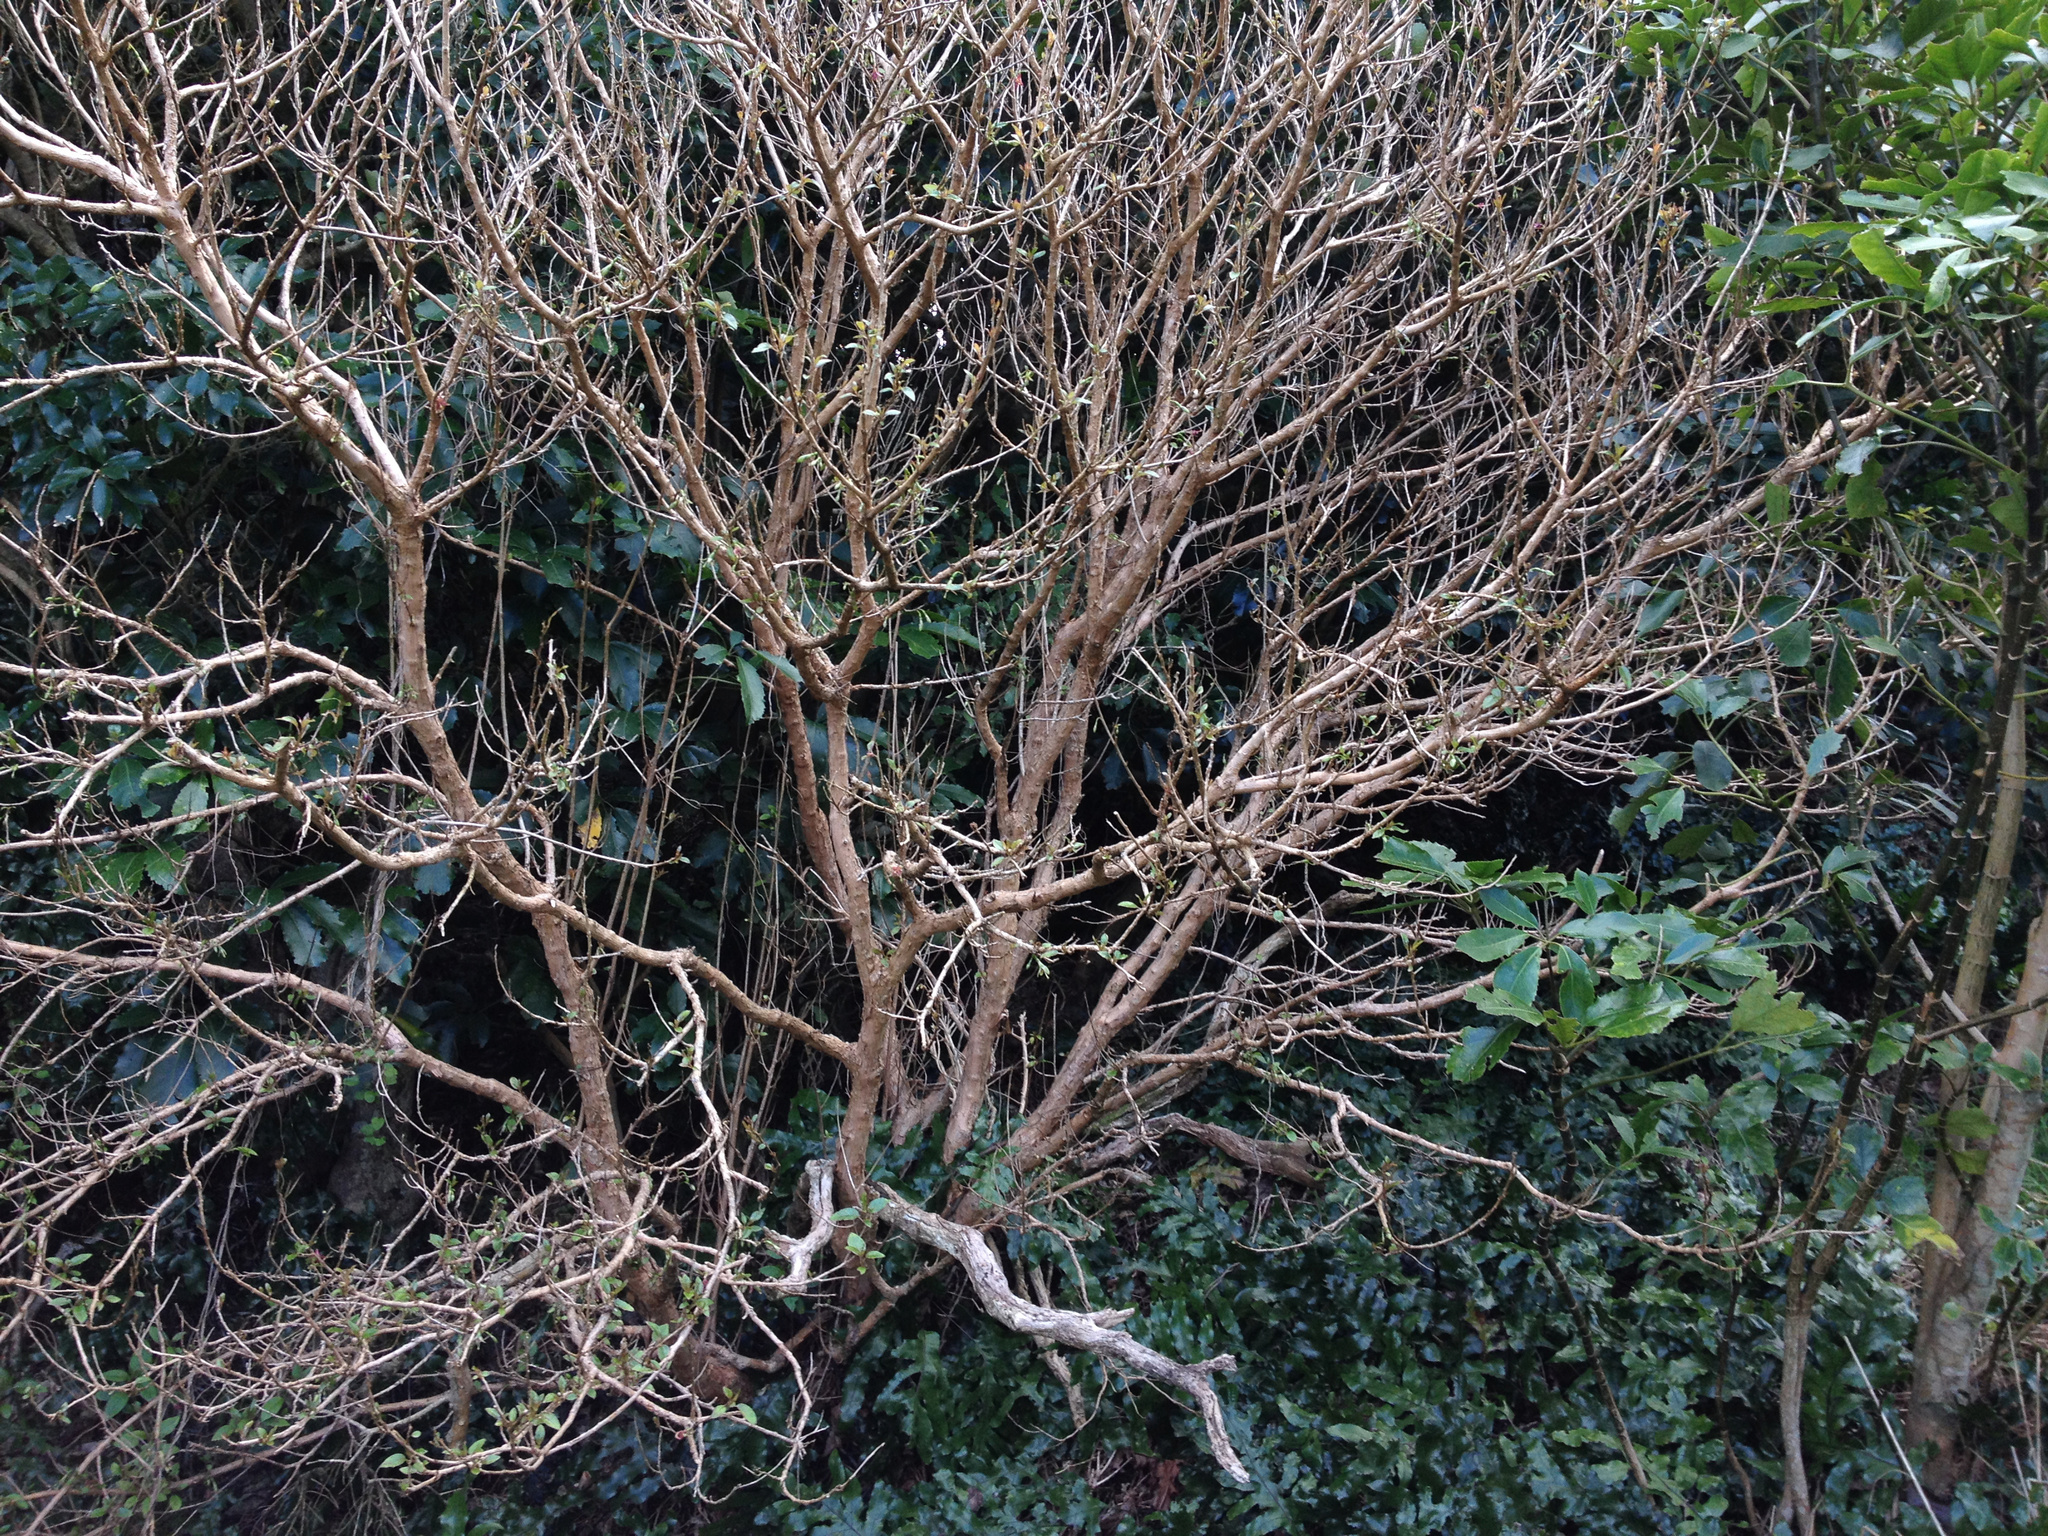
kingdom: Plantae
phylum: Tracheophyta
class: Magnoliopsida
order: Myrtales
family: Onagraceae
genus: Fuchsia
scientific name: Fuchsia excorticata
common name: Tree fuchsia
